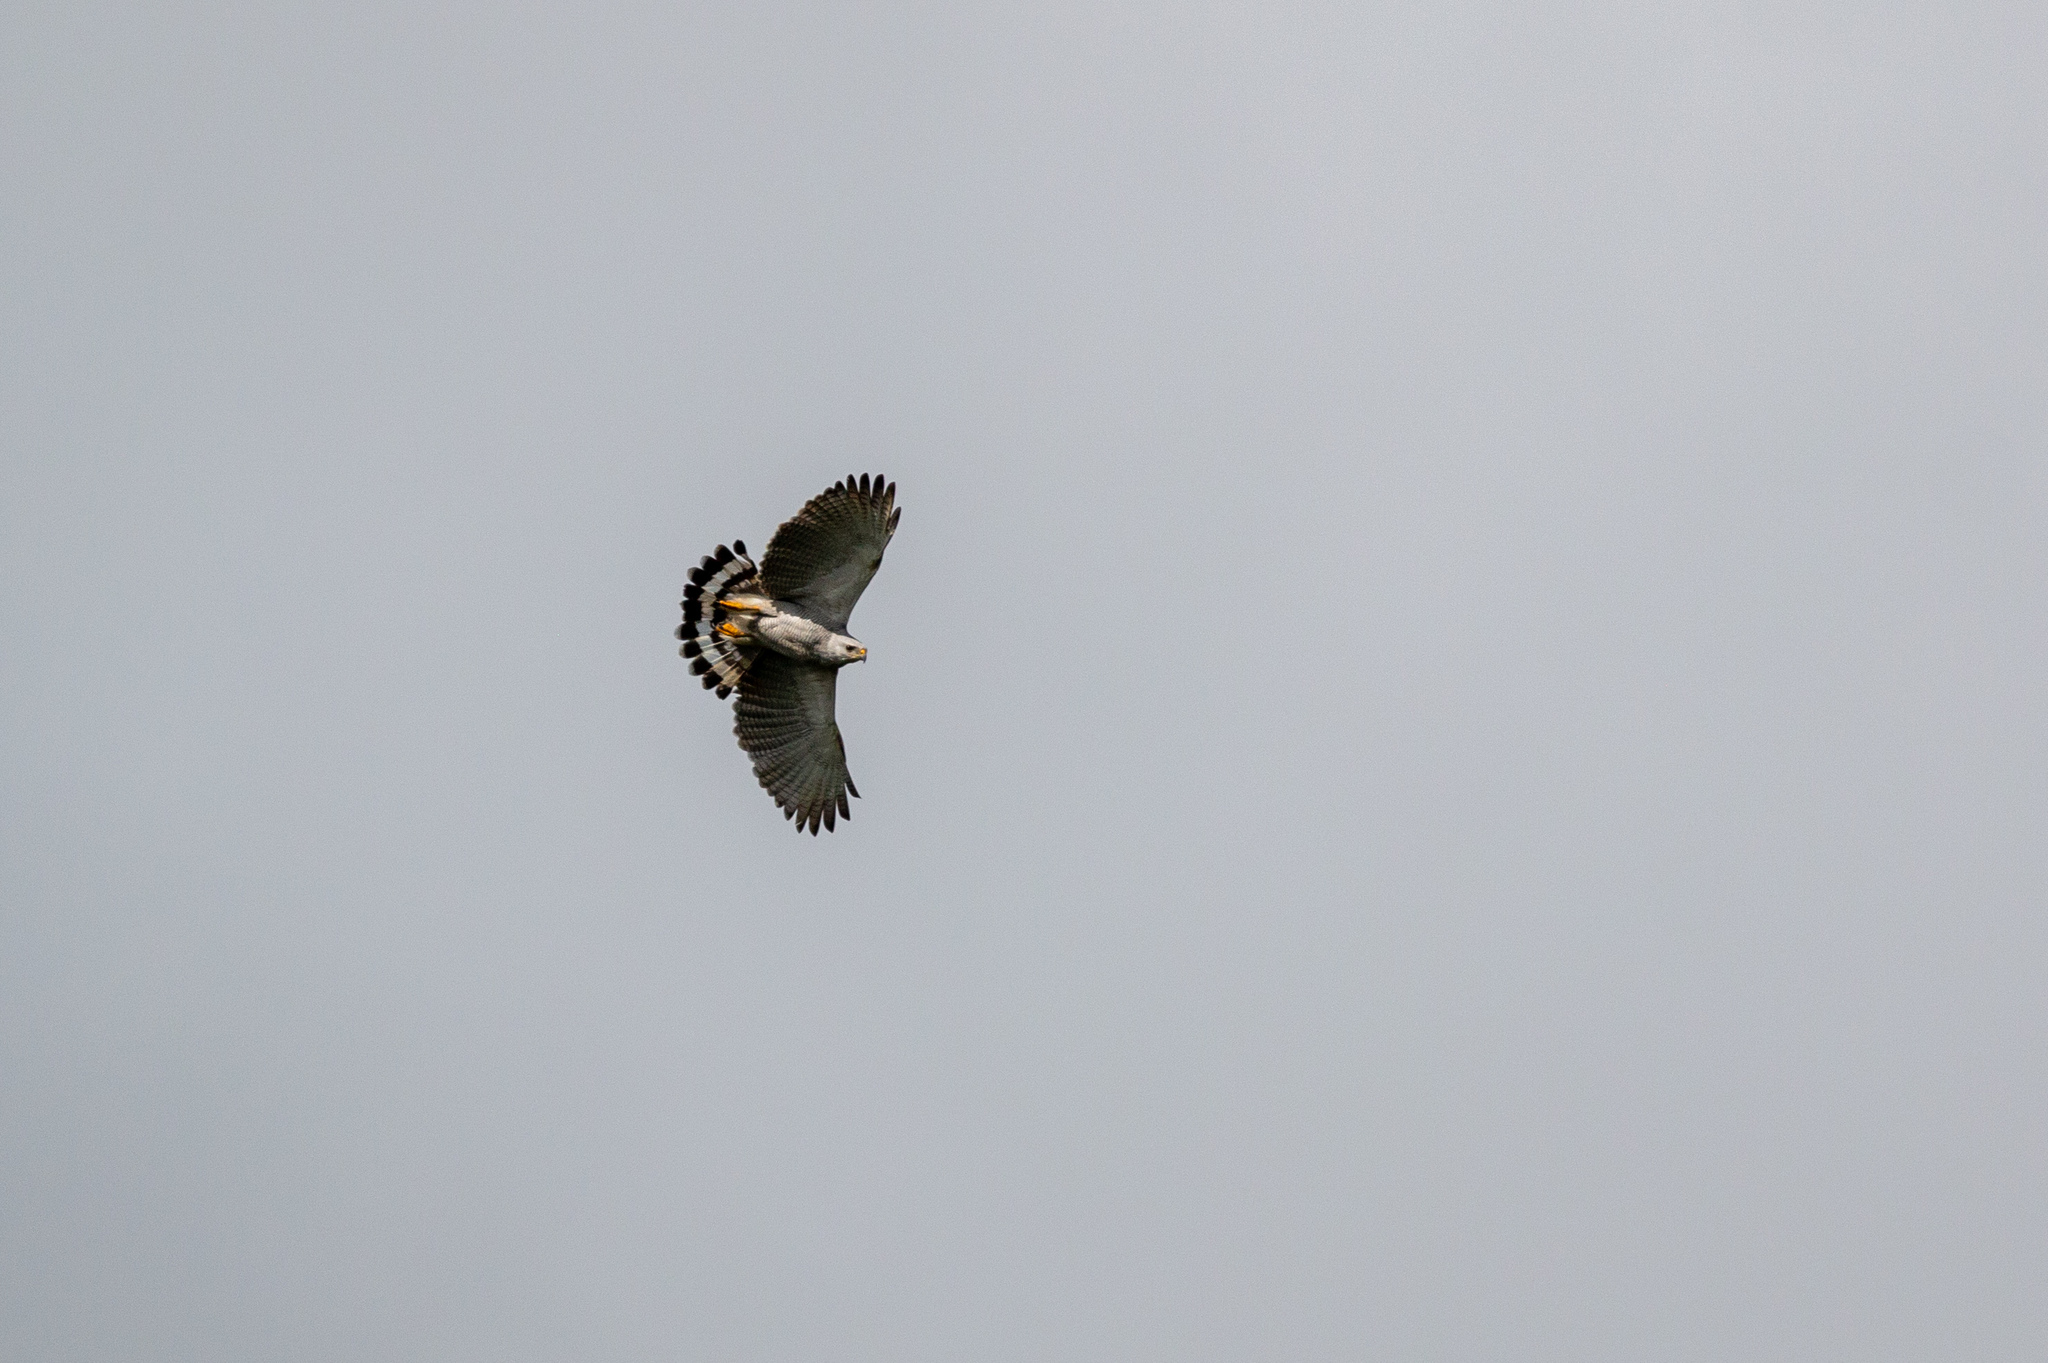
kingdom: Animalia
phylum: Chordata
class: Aves
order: Accipitriformes
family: Accipitridae
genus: Buteo
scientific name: Buteo nitidus
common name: Grey-lined hawk
